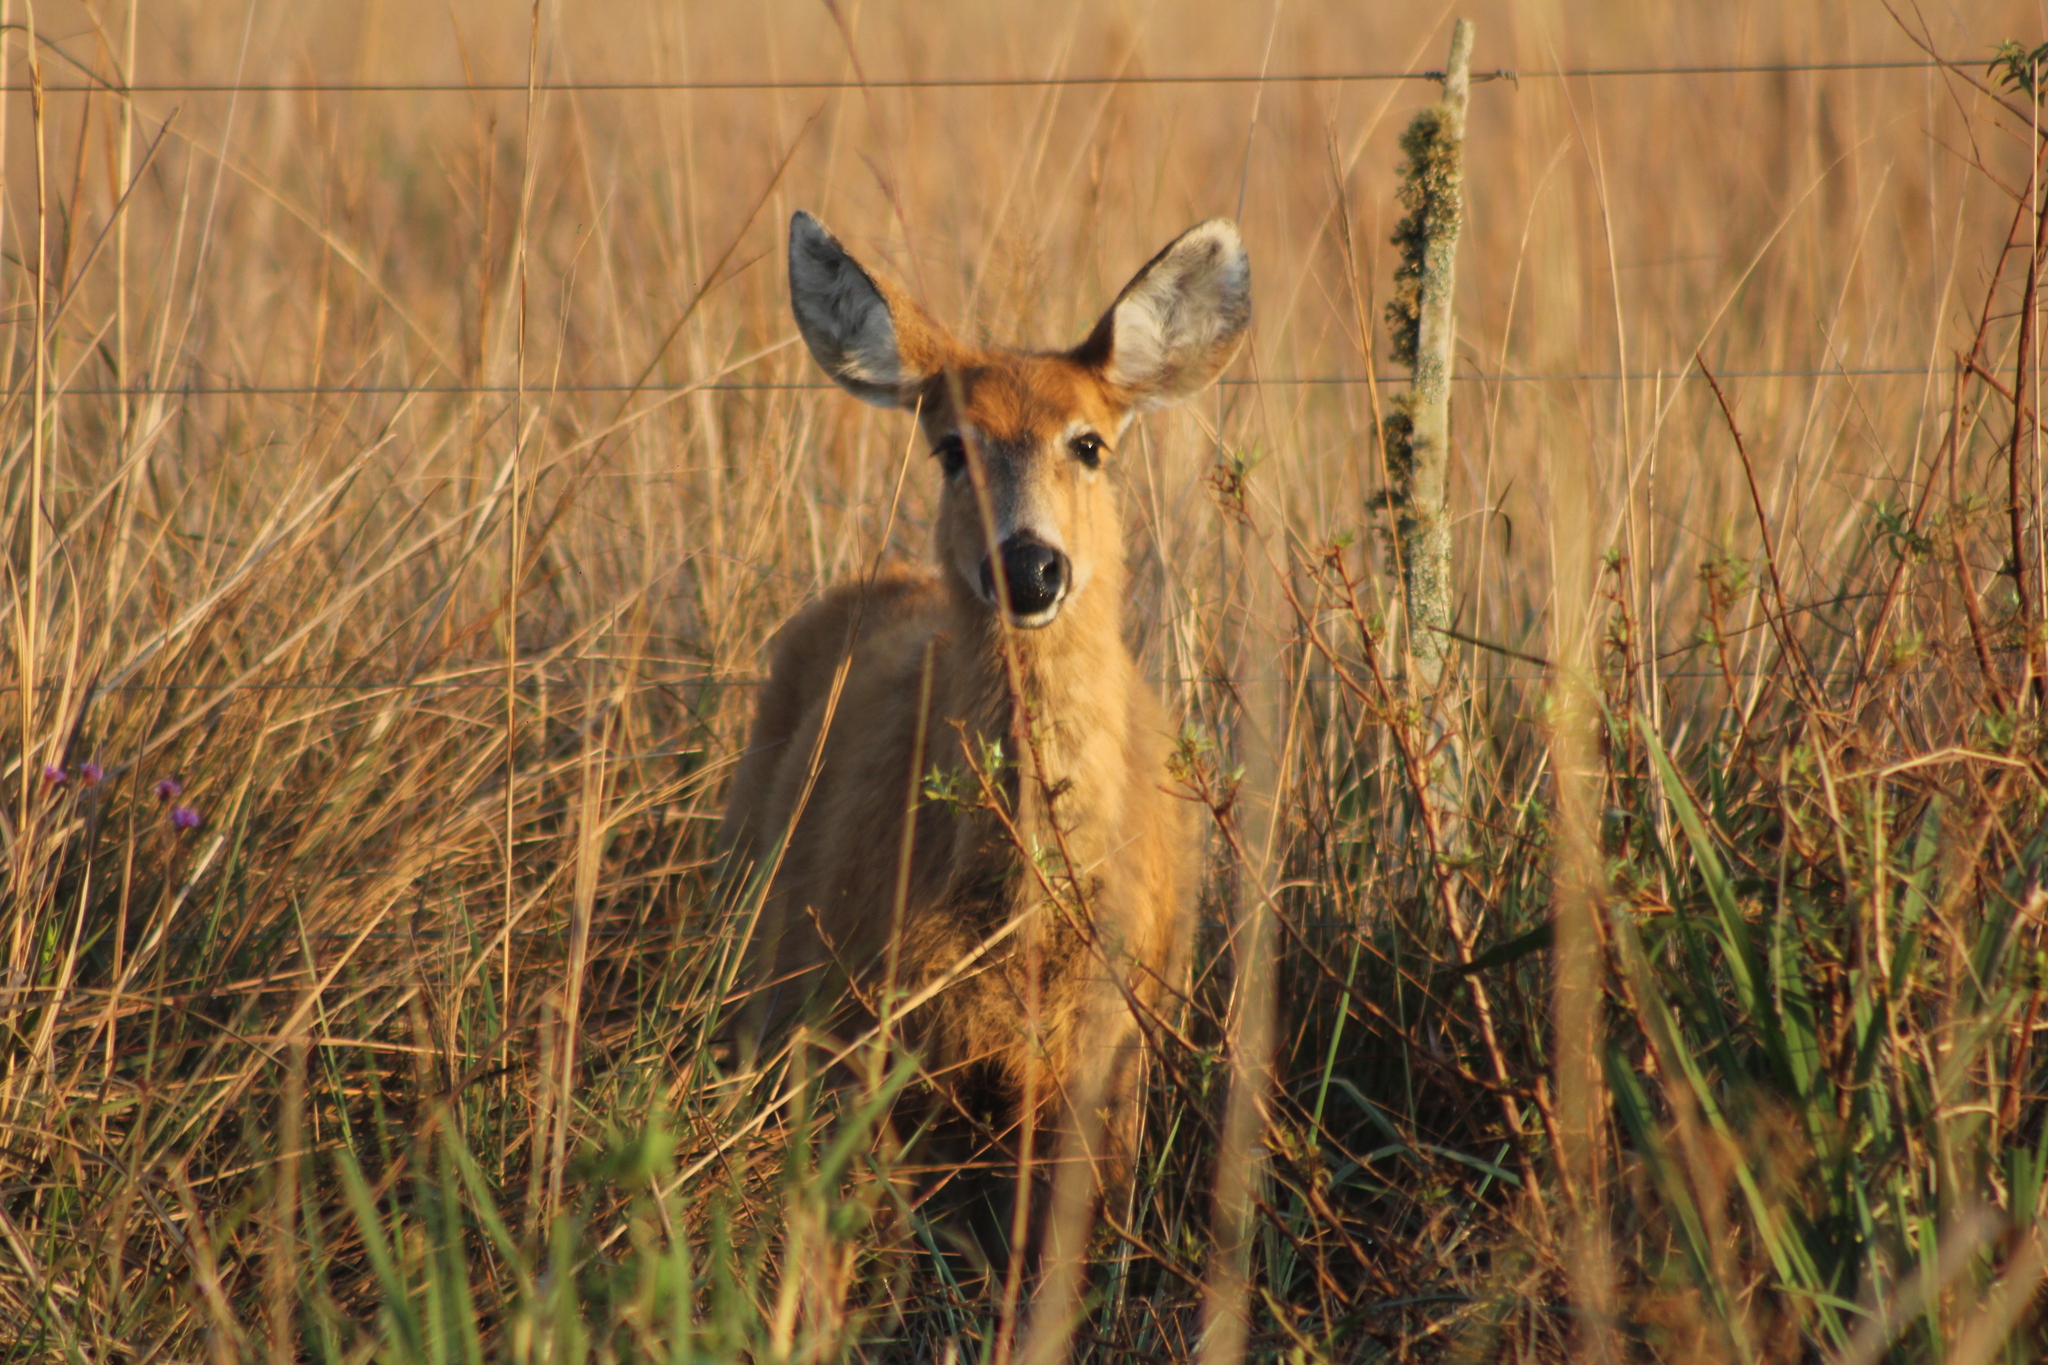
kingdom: Animalia
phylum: Chordata
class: Mammalia
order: Artiodactyla
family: Cervidae
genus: Blastocerus
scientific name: Blastocerus dichotomus
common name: Marsh deer
